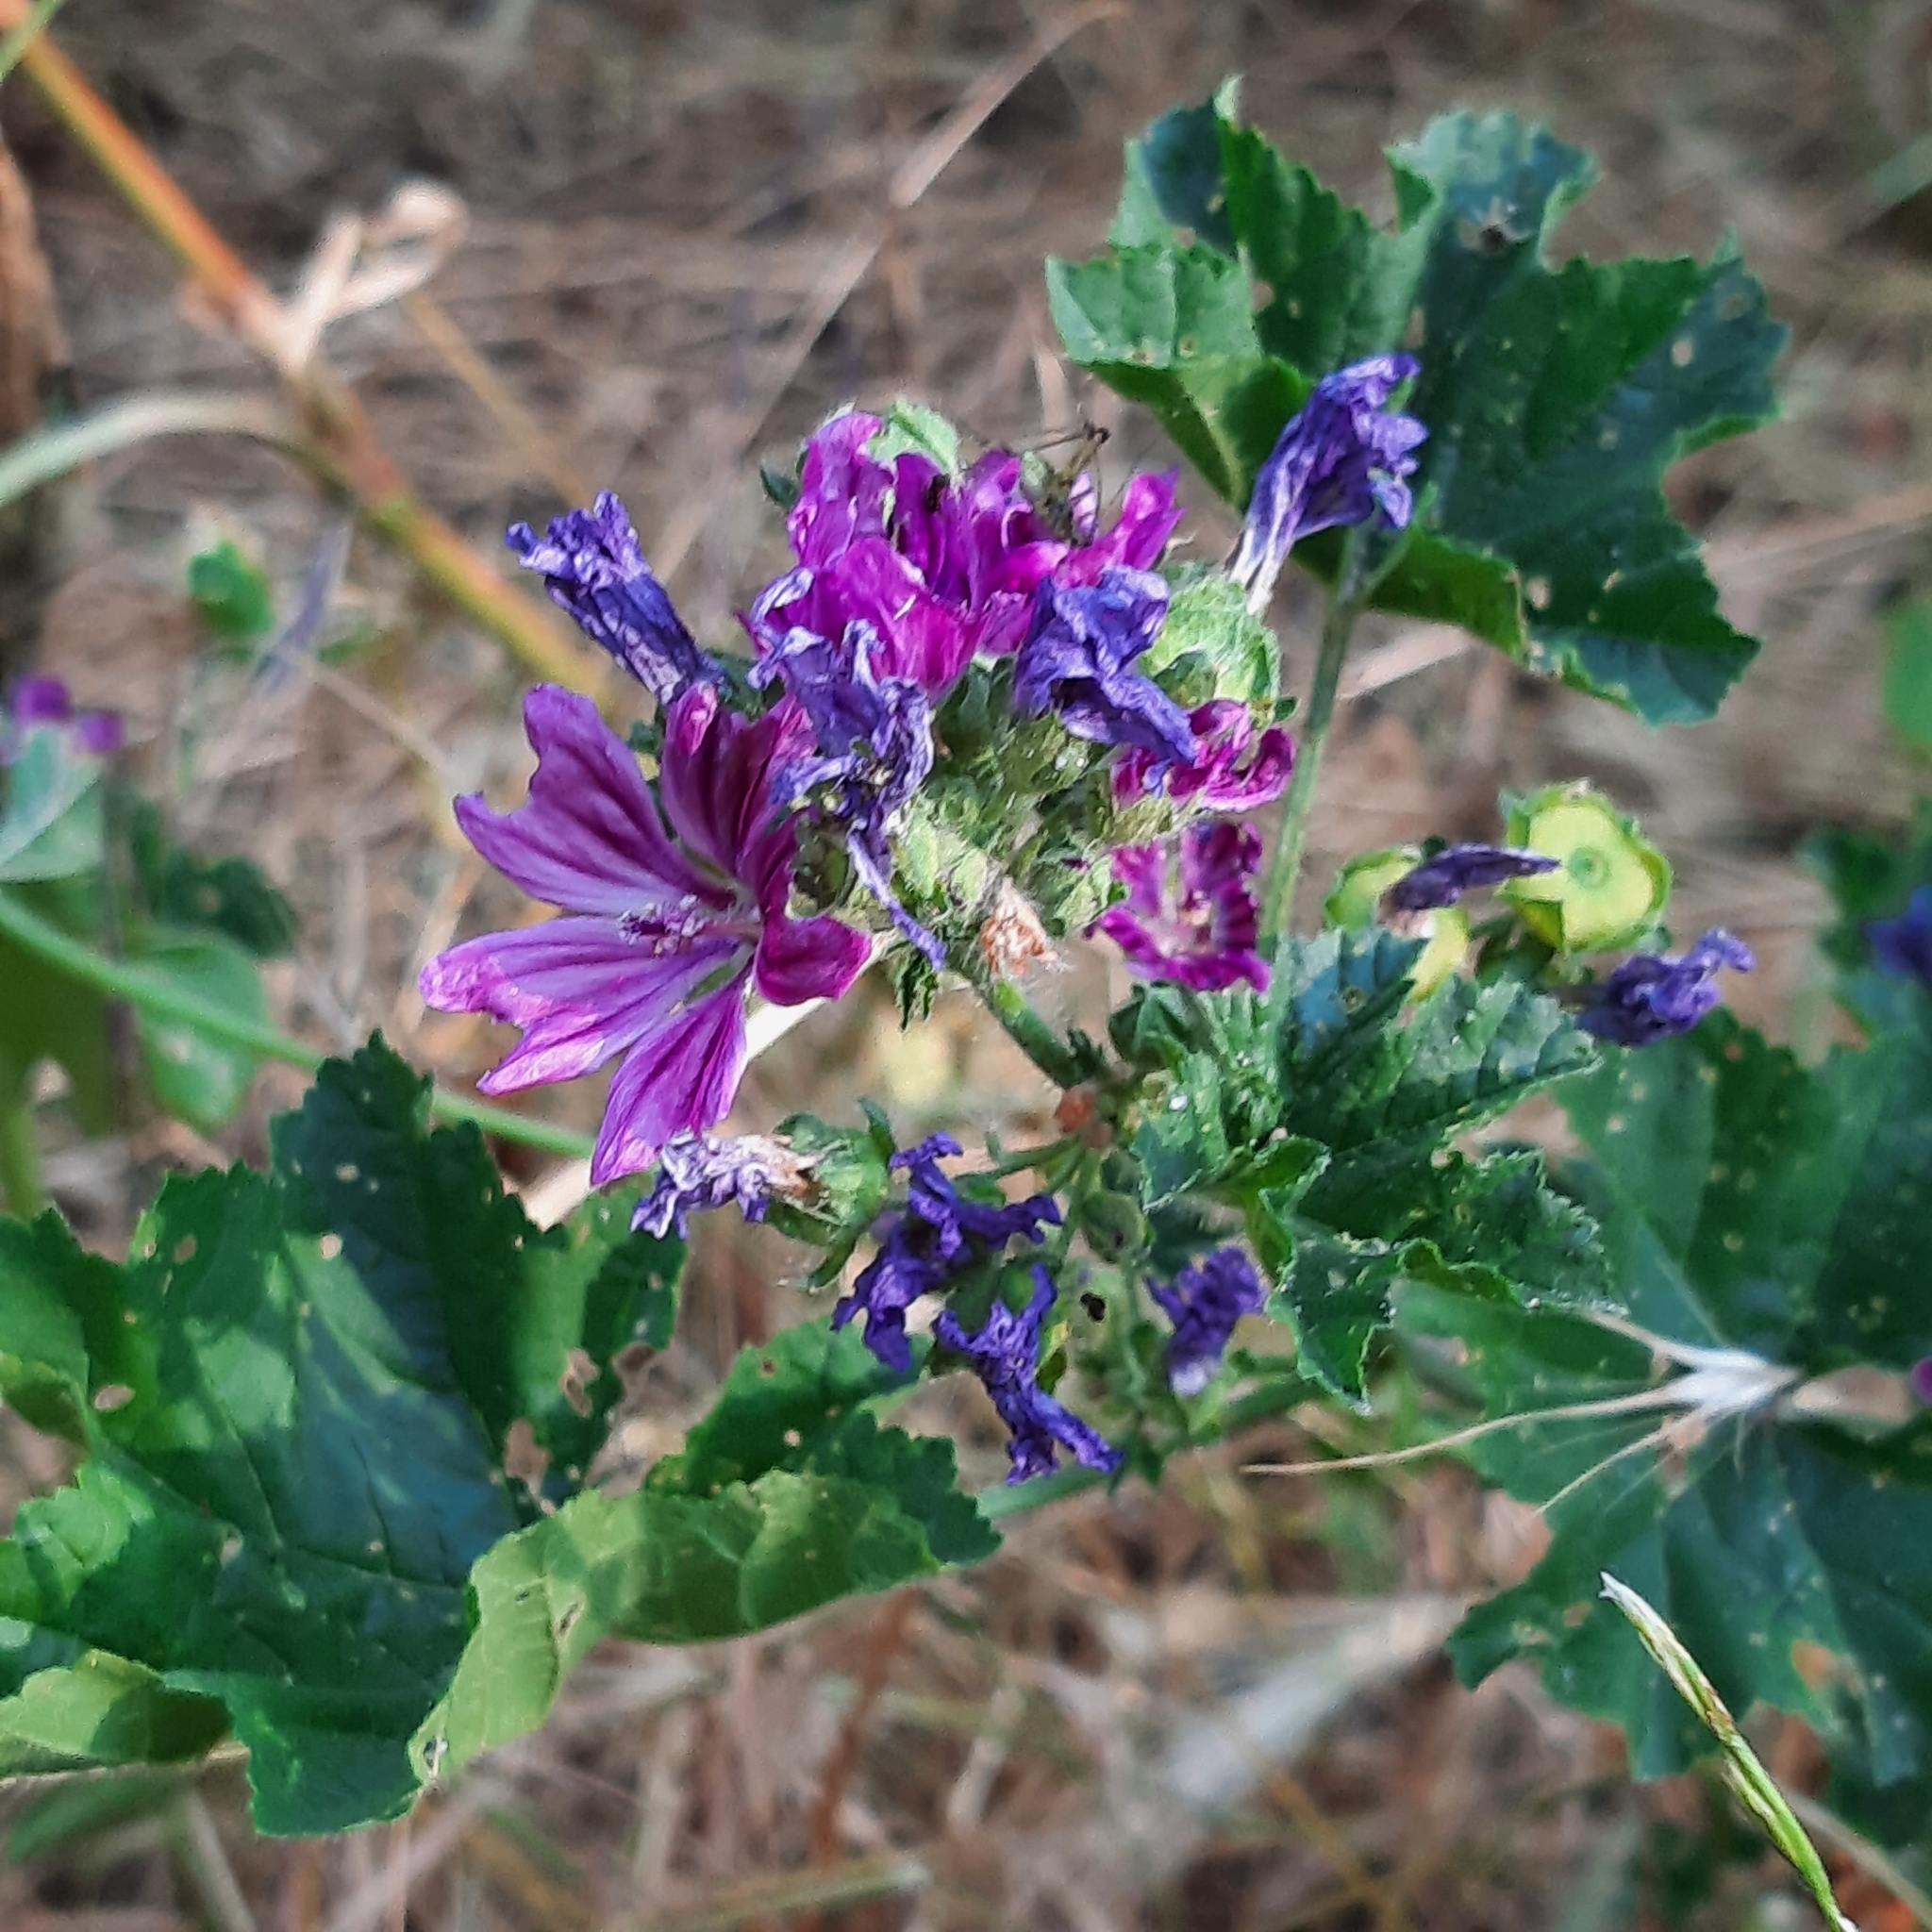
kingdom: Plantae
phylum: Tracheophyta
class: Magnoliopsida
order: Malvales
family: Malvaceae
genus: Malva
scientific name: Malva neglecta
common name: Common mallow
